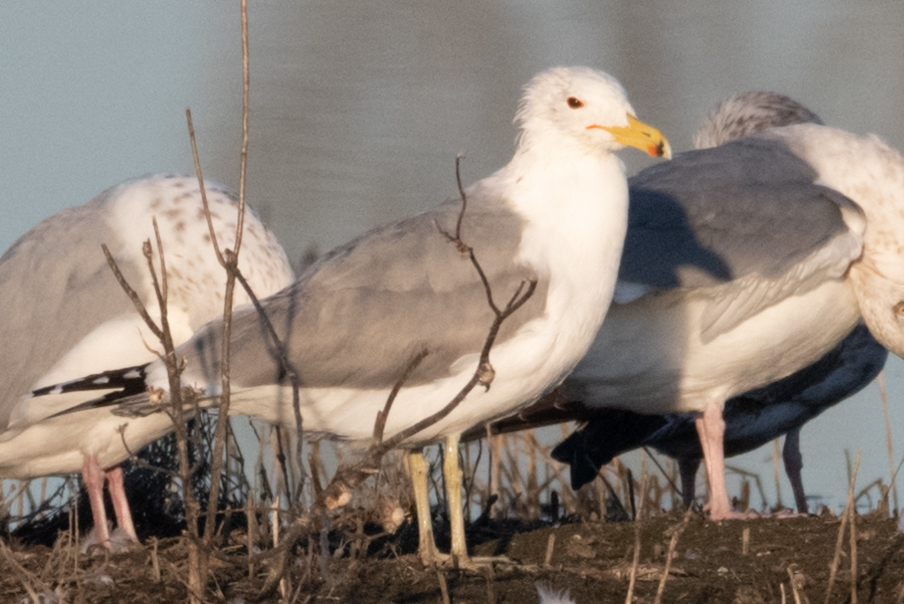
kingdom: Animalia
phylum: Chordata
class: Aves
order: Charadriiformes
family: Laridae
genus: Larus
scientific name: Larus californicus
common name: California gull
